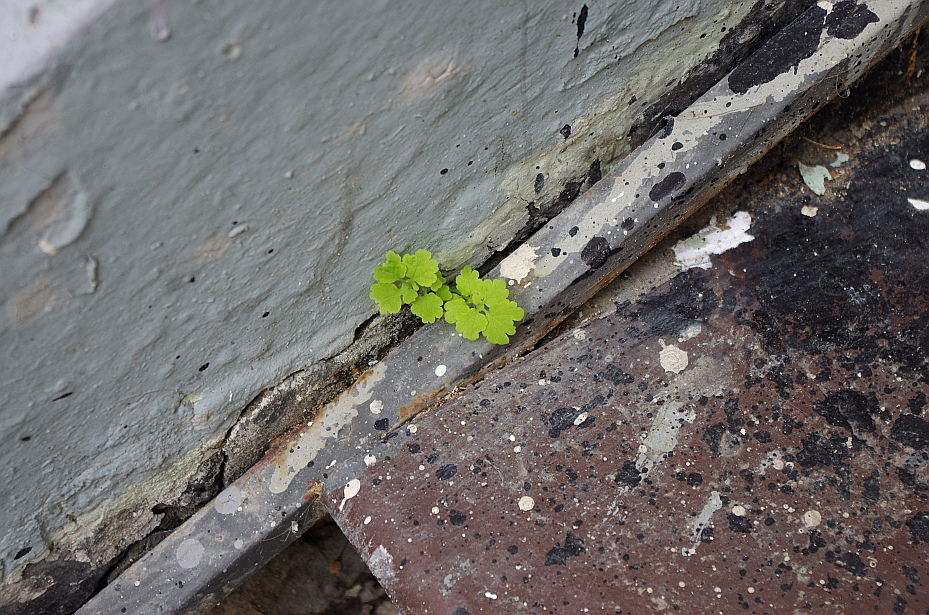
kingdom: Plantae
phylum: Tracheophyta
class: Magnoliopsida
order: Ranunculales
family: Papaveraceae
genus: Chelidonium
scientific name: Chelidonium majus
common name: Greater celandine
